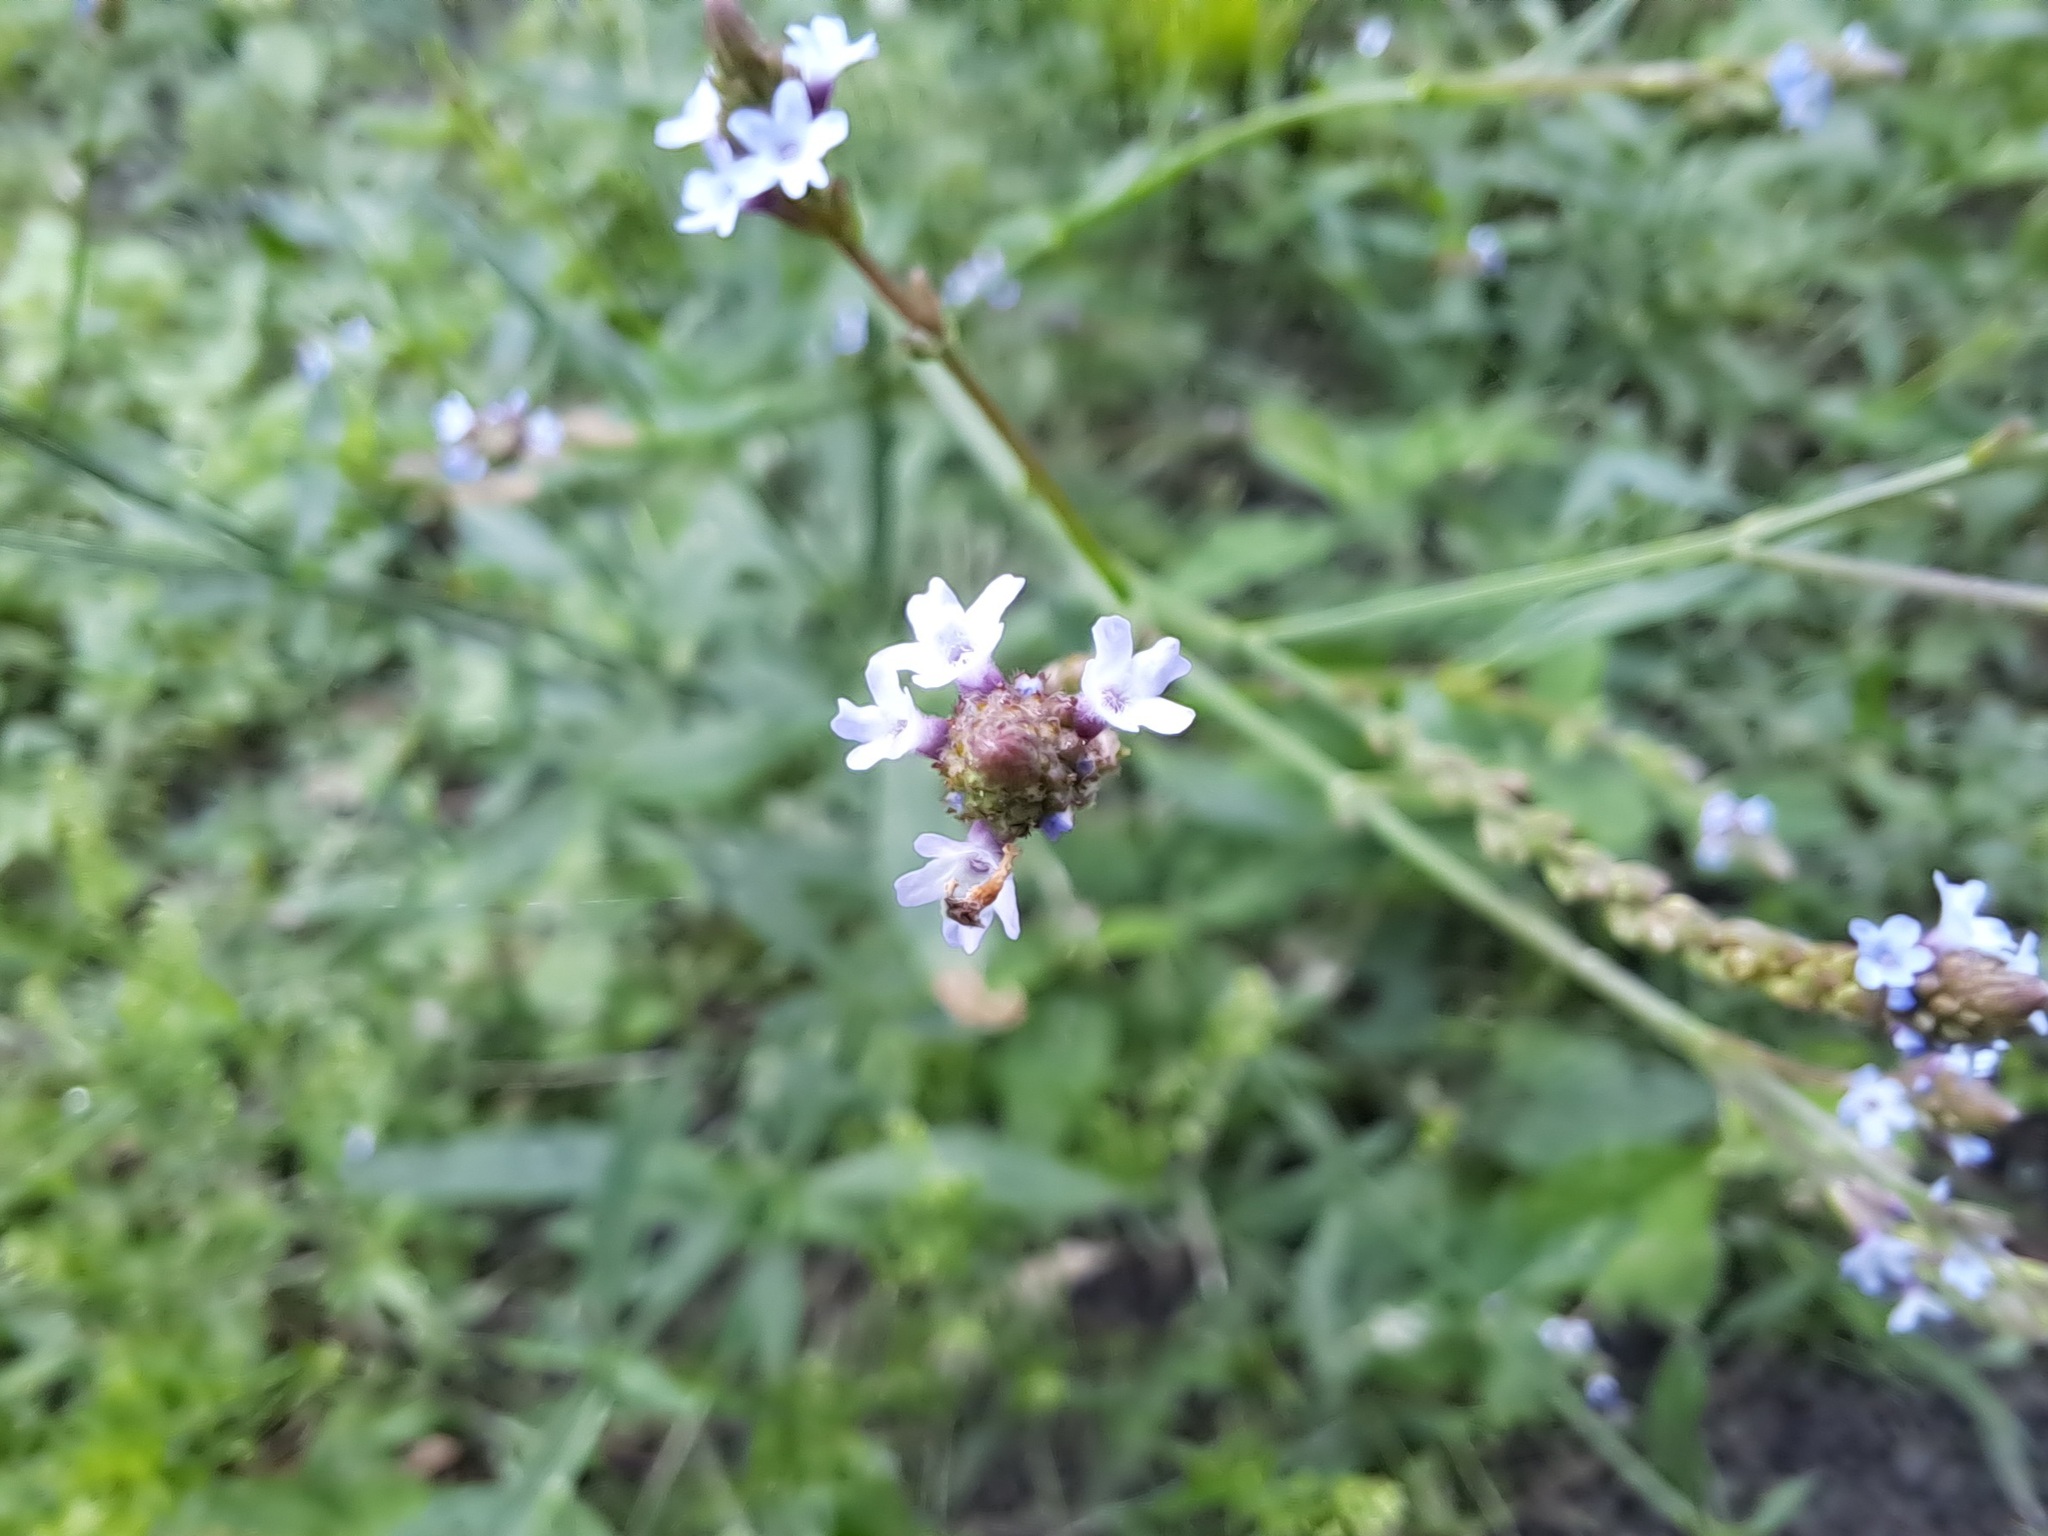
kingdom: Plantae
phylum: Tracheophyta
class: Magnoliopsida
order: Lamiales
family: Verbenaceae
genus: Verbena
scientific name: Verbena litoralis
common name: Seashore vervain
